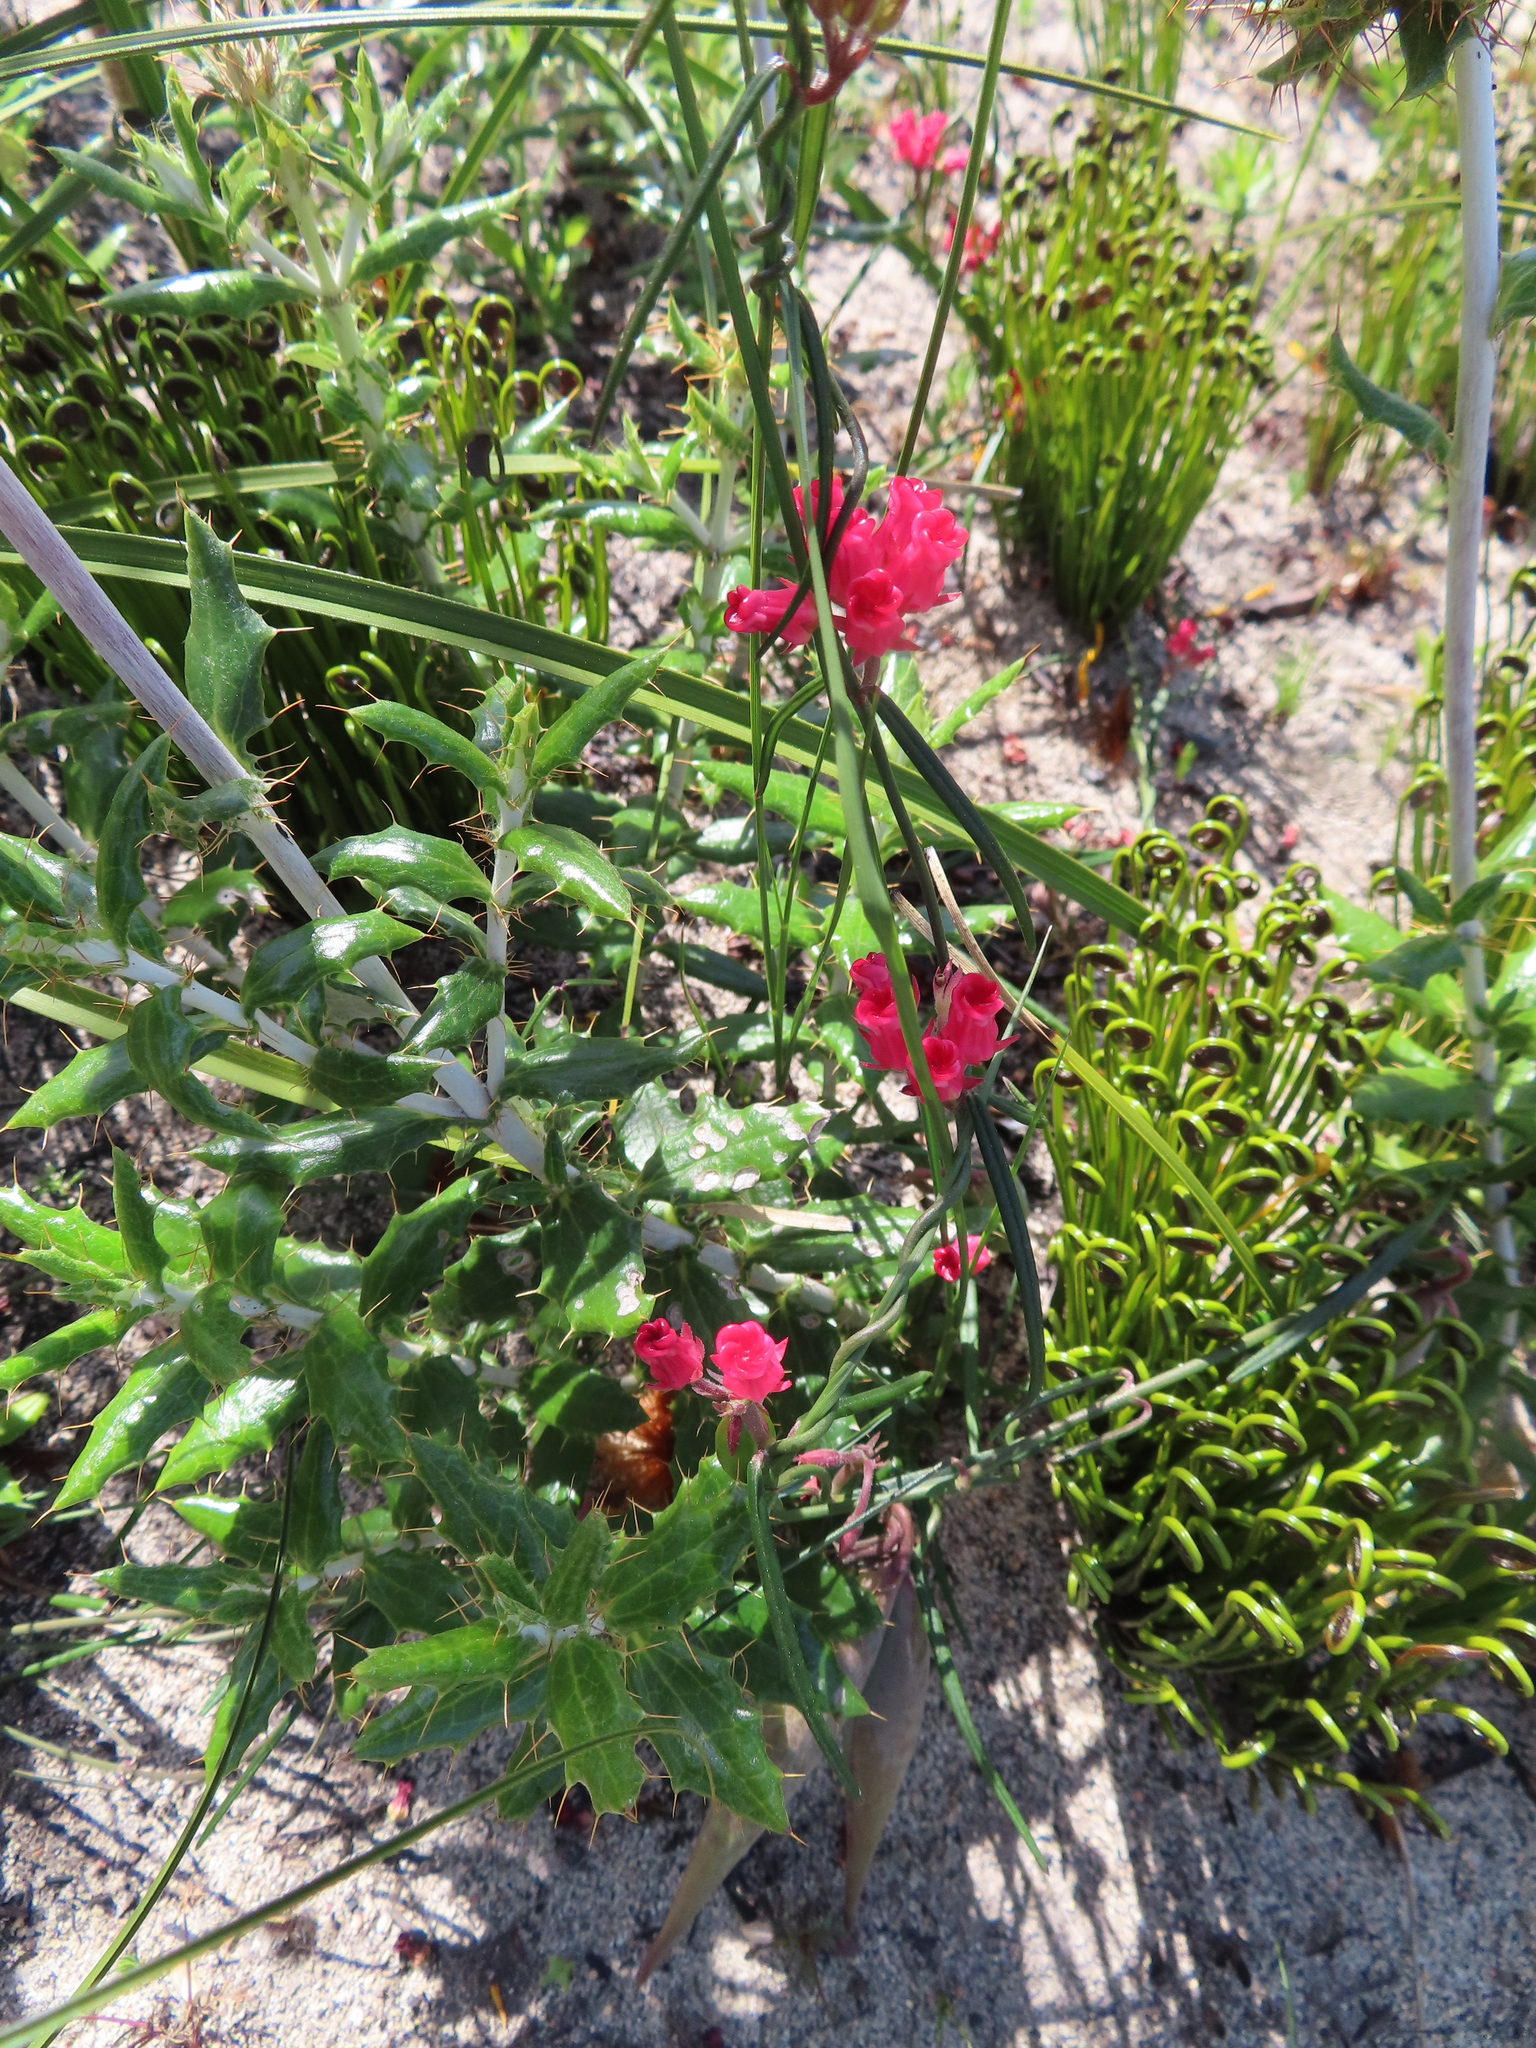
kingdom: Plantae
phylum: Tracheophyta
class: Magnoliopsida
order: Gentianales
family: Apocynaceae
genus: Microloma
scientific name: Microloma tenuifolium
